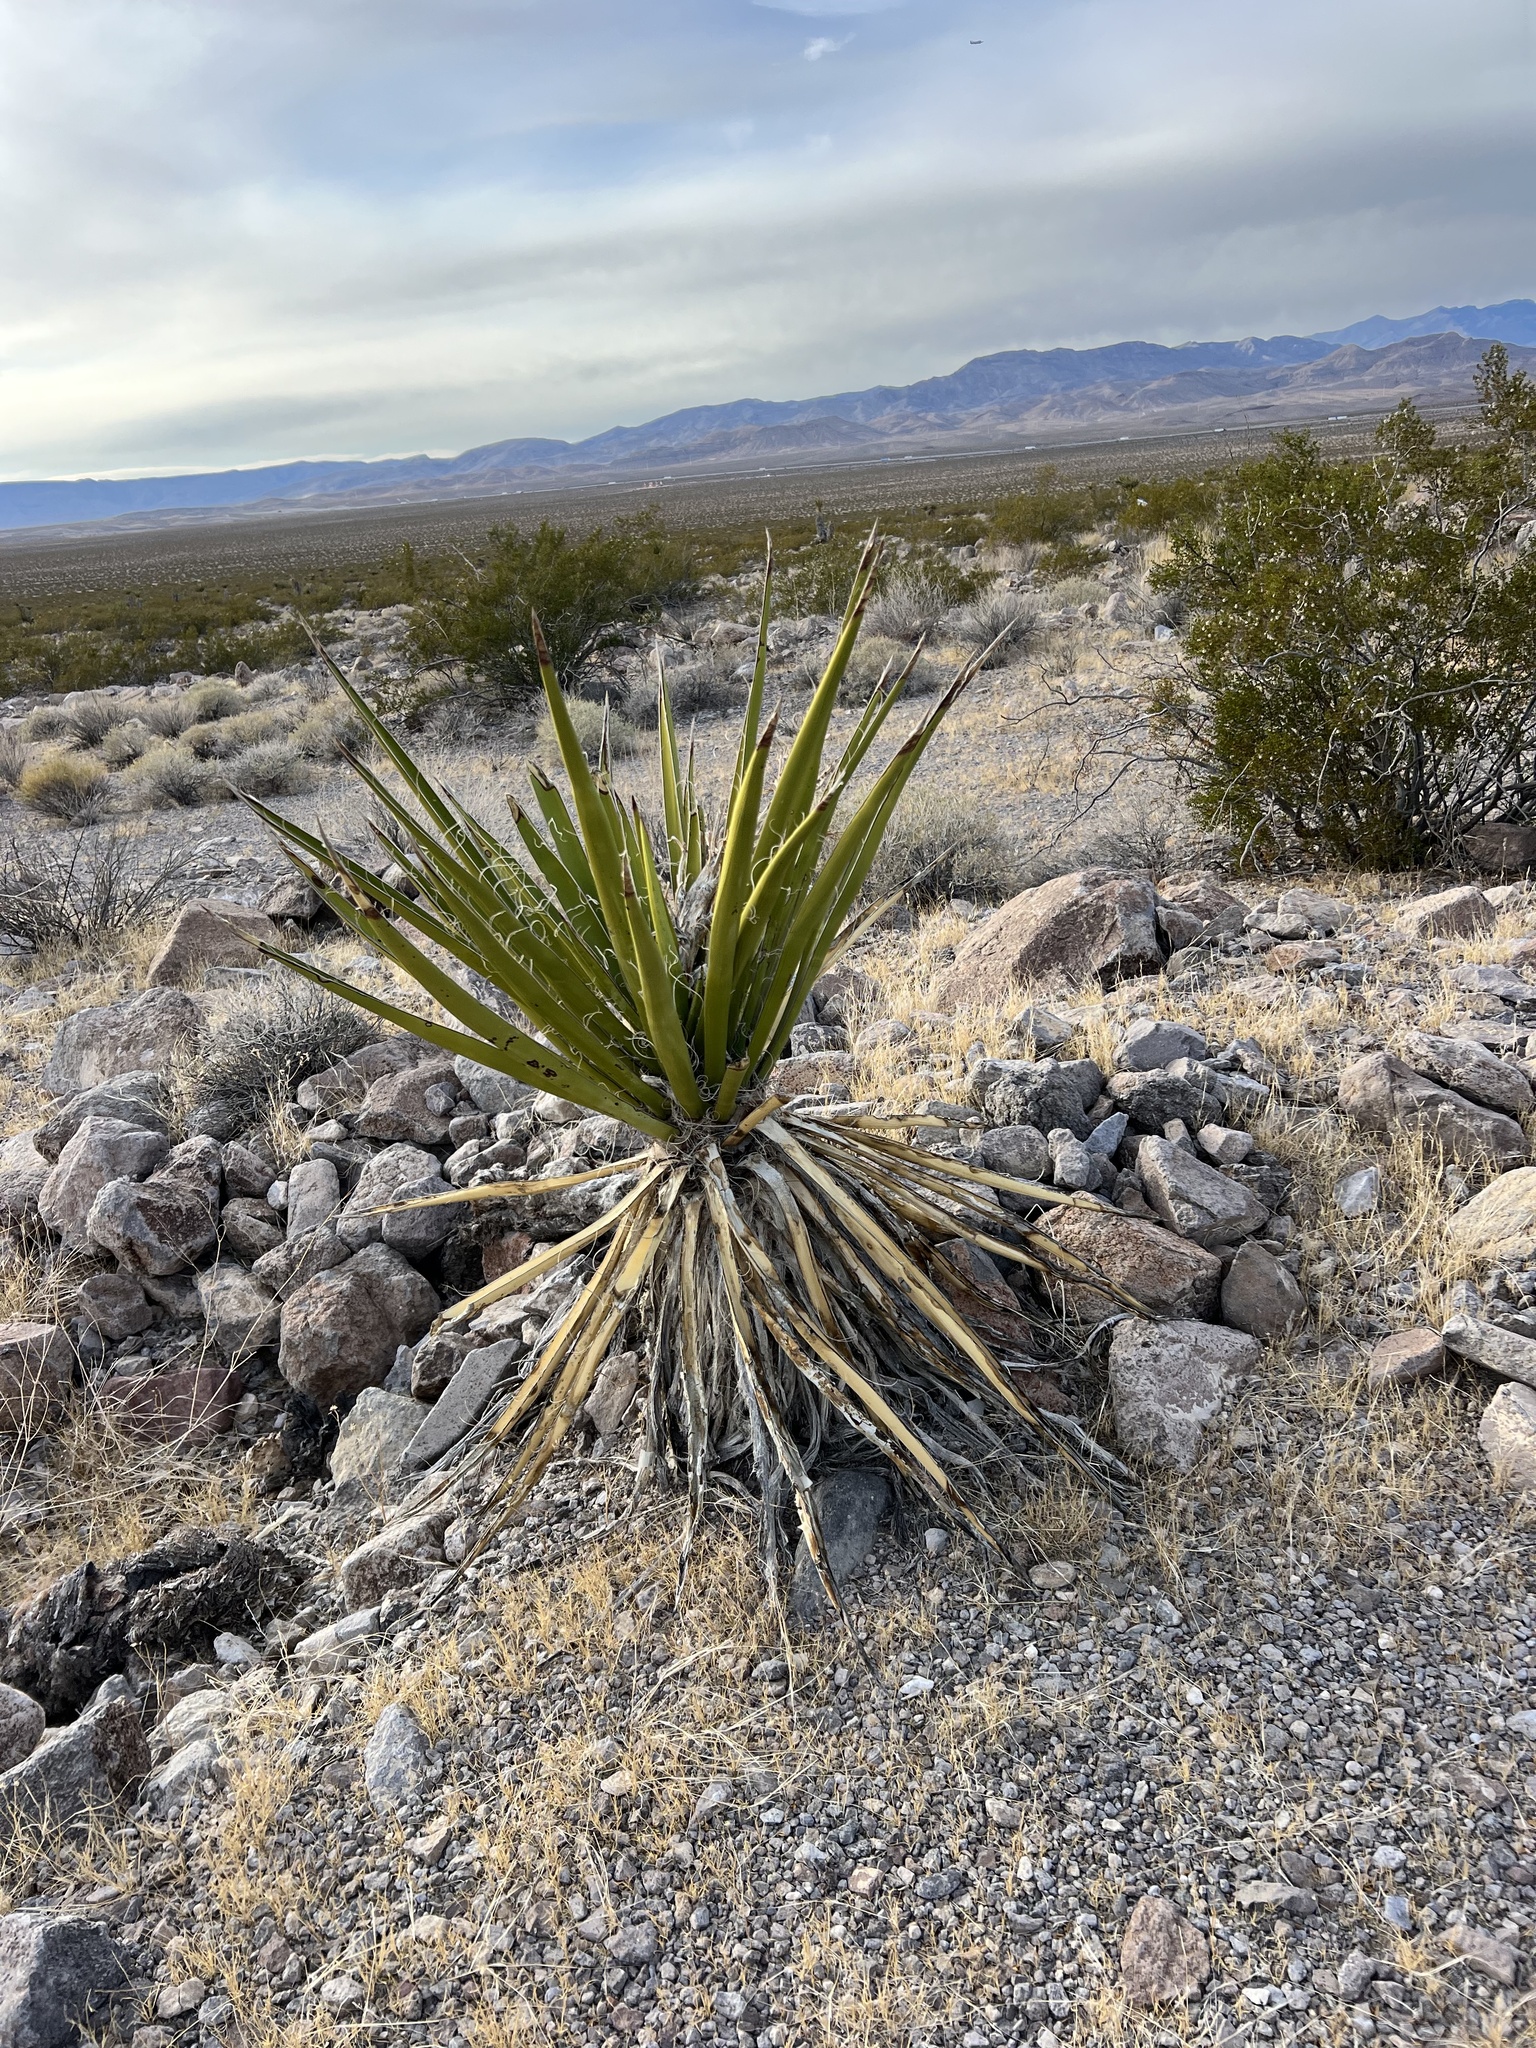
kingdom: Plantae
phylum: Tracheophyta
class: Liliopsida
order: Asparagales
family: Asparagaceae
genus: Yucca
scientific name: Yucca schidigera
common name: Mojave yucca
